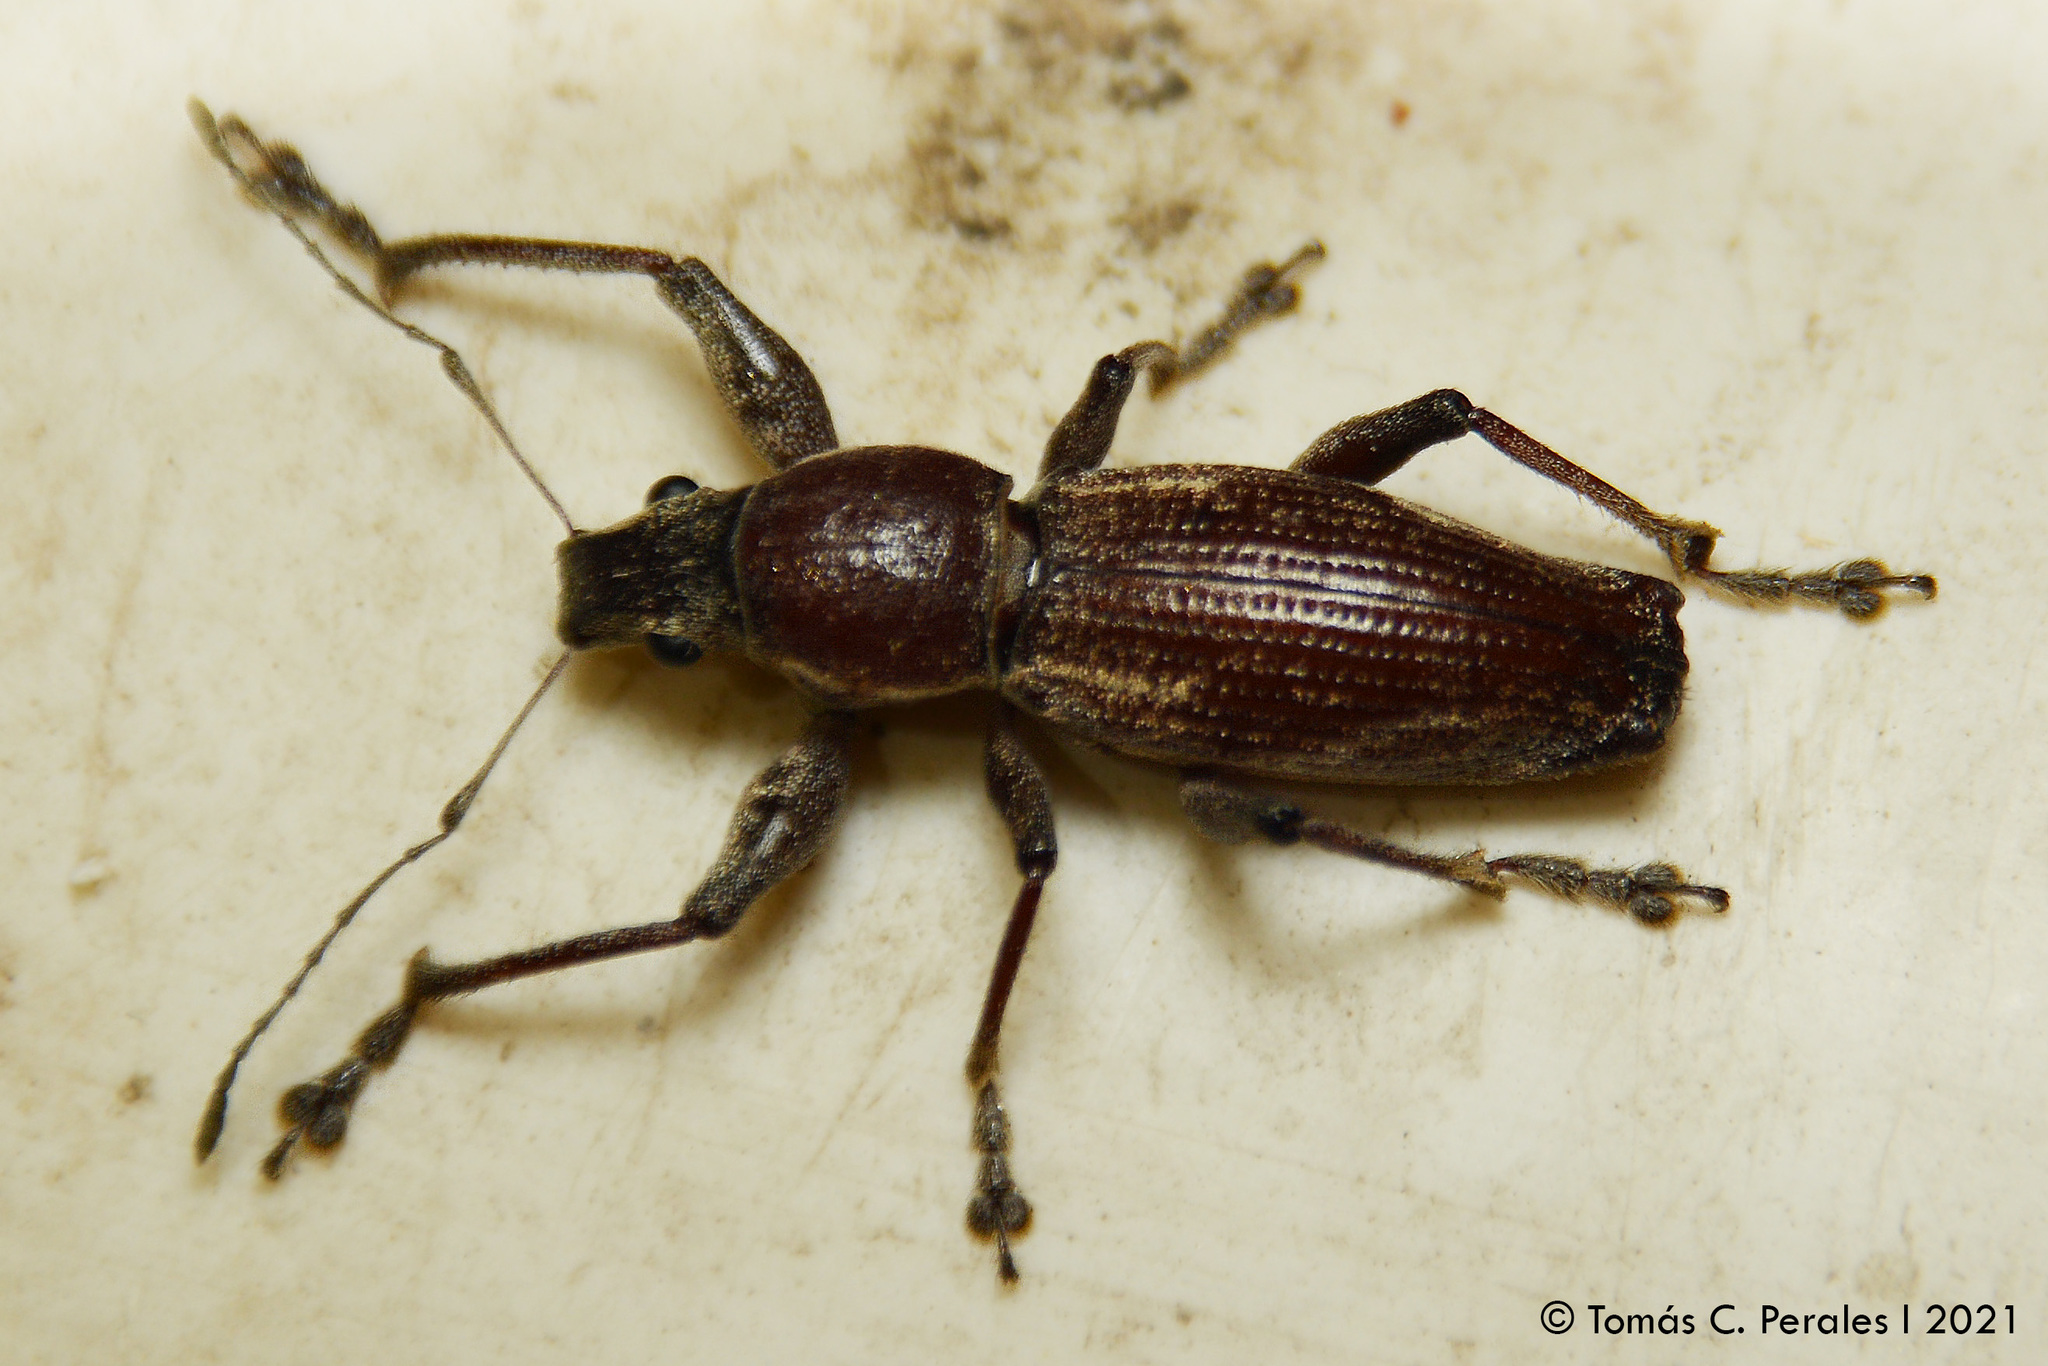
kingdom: Animalia
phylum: Arthropoda
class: Insecta
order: Coleoptera
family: Curculionidae
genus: Naupactus
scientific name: Naupactus xanthographus
